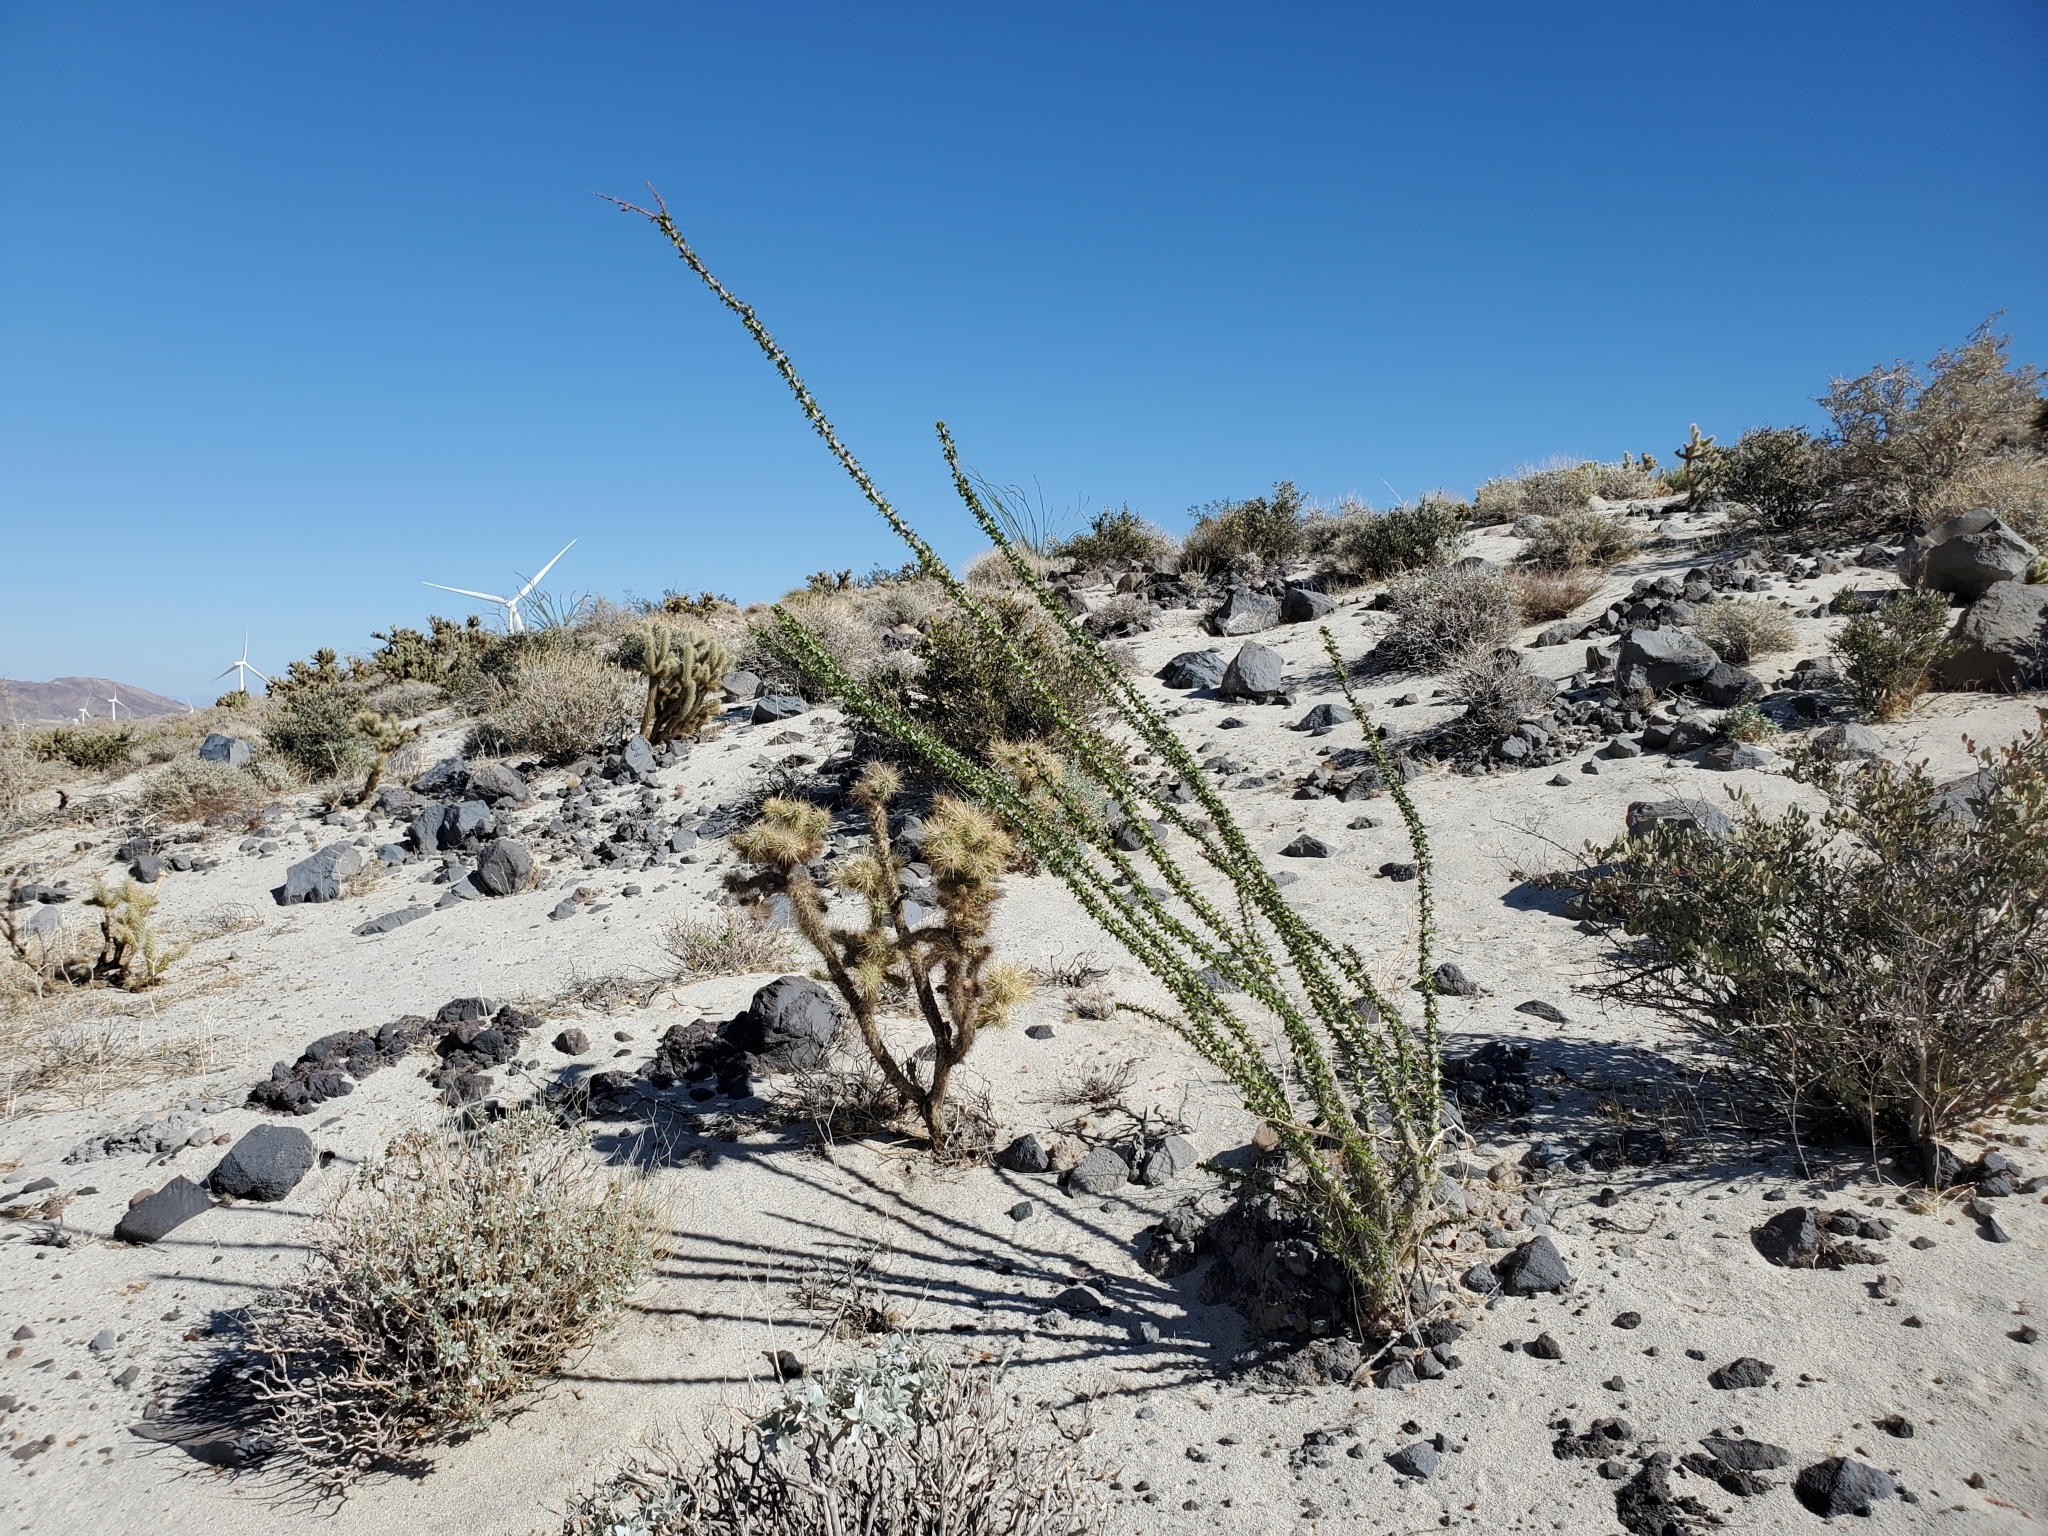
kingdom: Plantae
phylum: Tracheophyta
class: Magnoliopsida
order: Ericales
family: Fouquieriaceae
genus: Fouquieria
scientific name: Fouquieria splendens
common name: Vine-cactus
